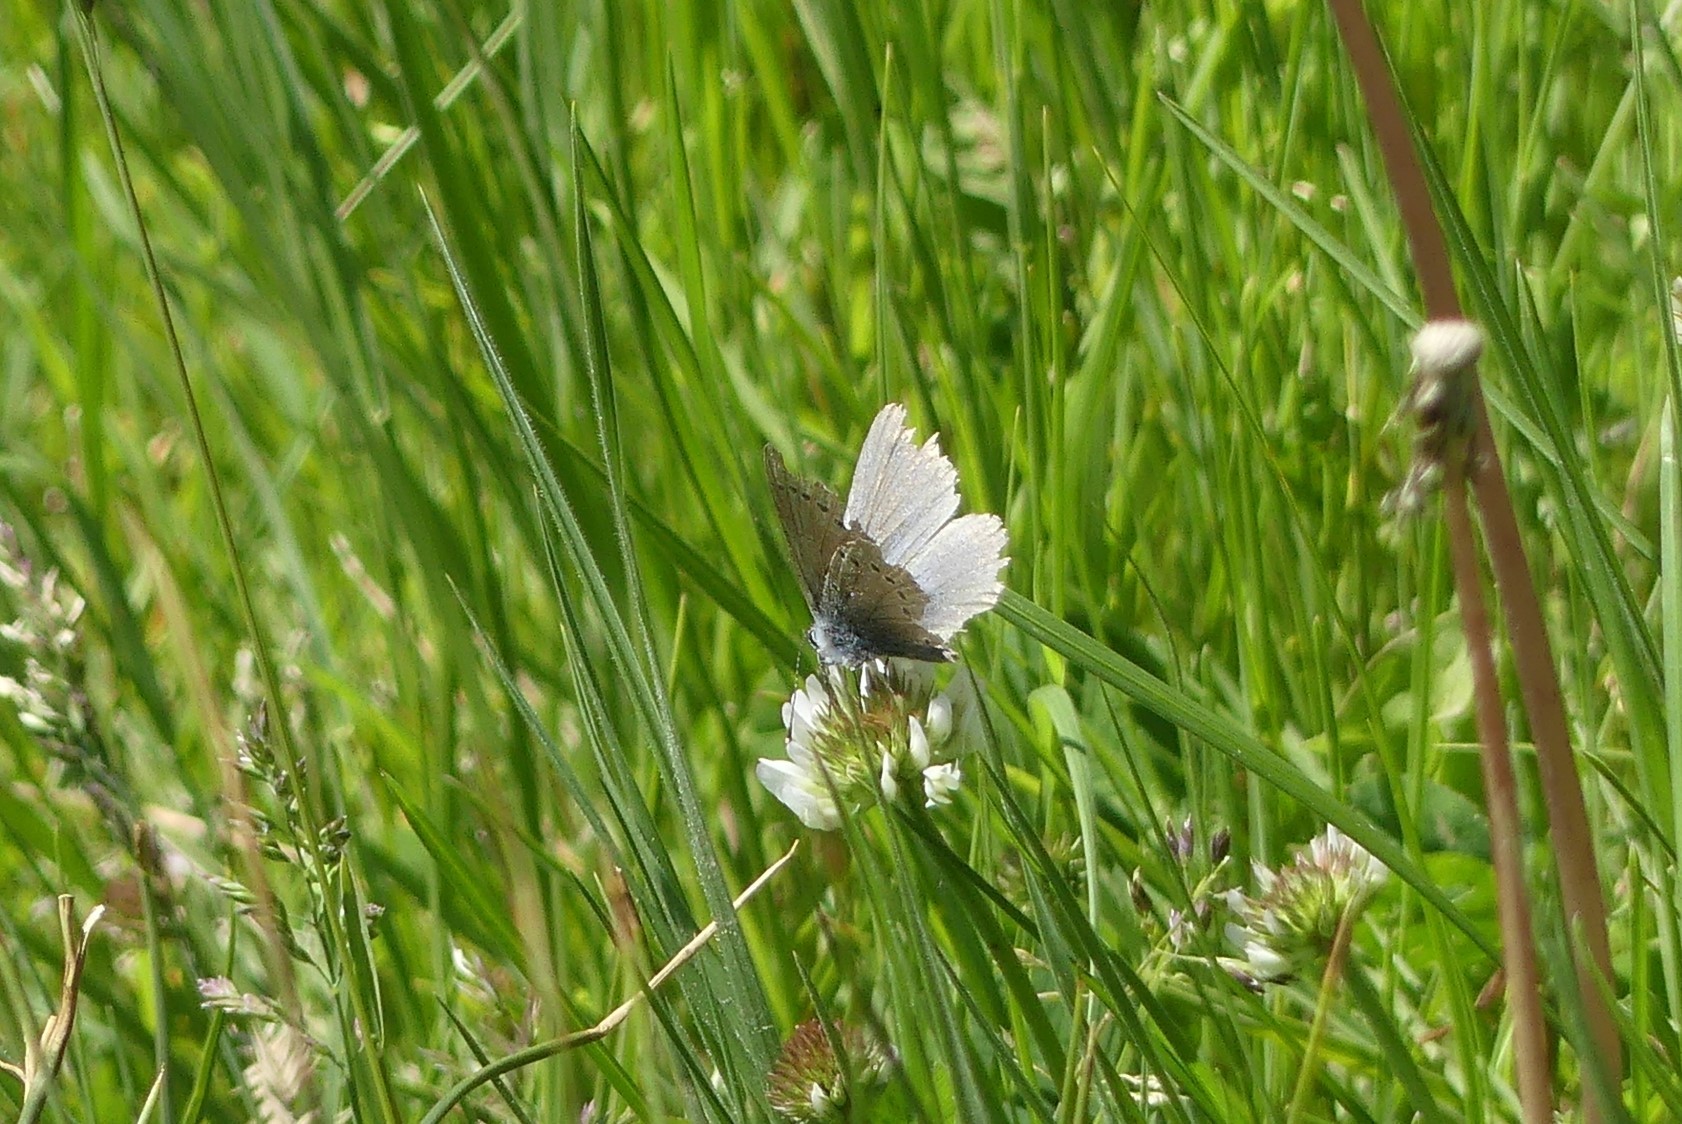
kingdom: Animalia
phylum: Arthropoda
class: Insecta
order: Lepidoptera
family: Lycaenidae
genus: Glaucopsyche
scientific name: Glaucopsyche lygdamus
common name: Silvery blue
